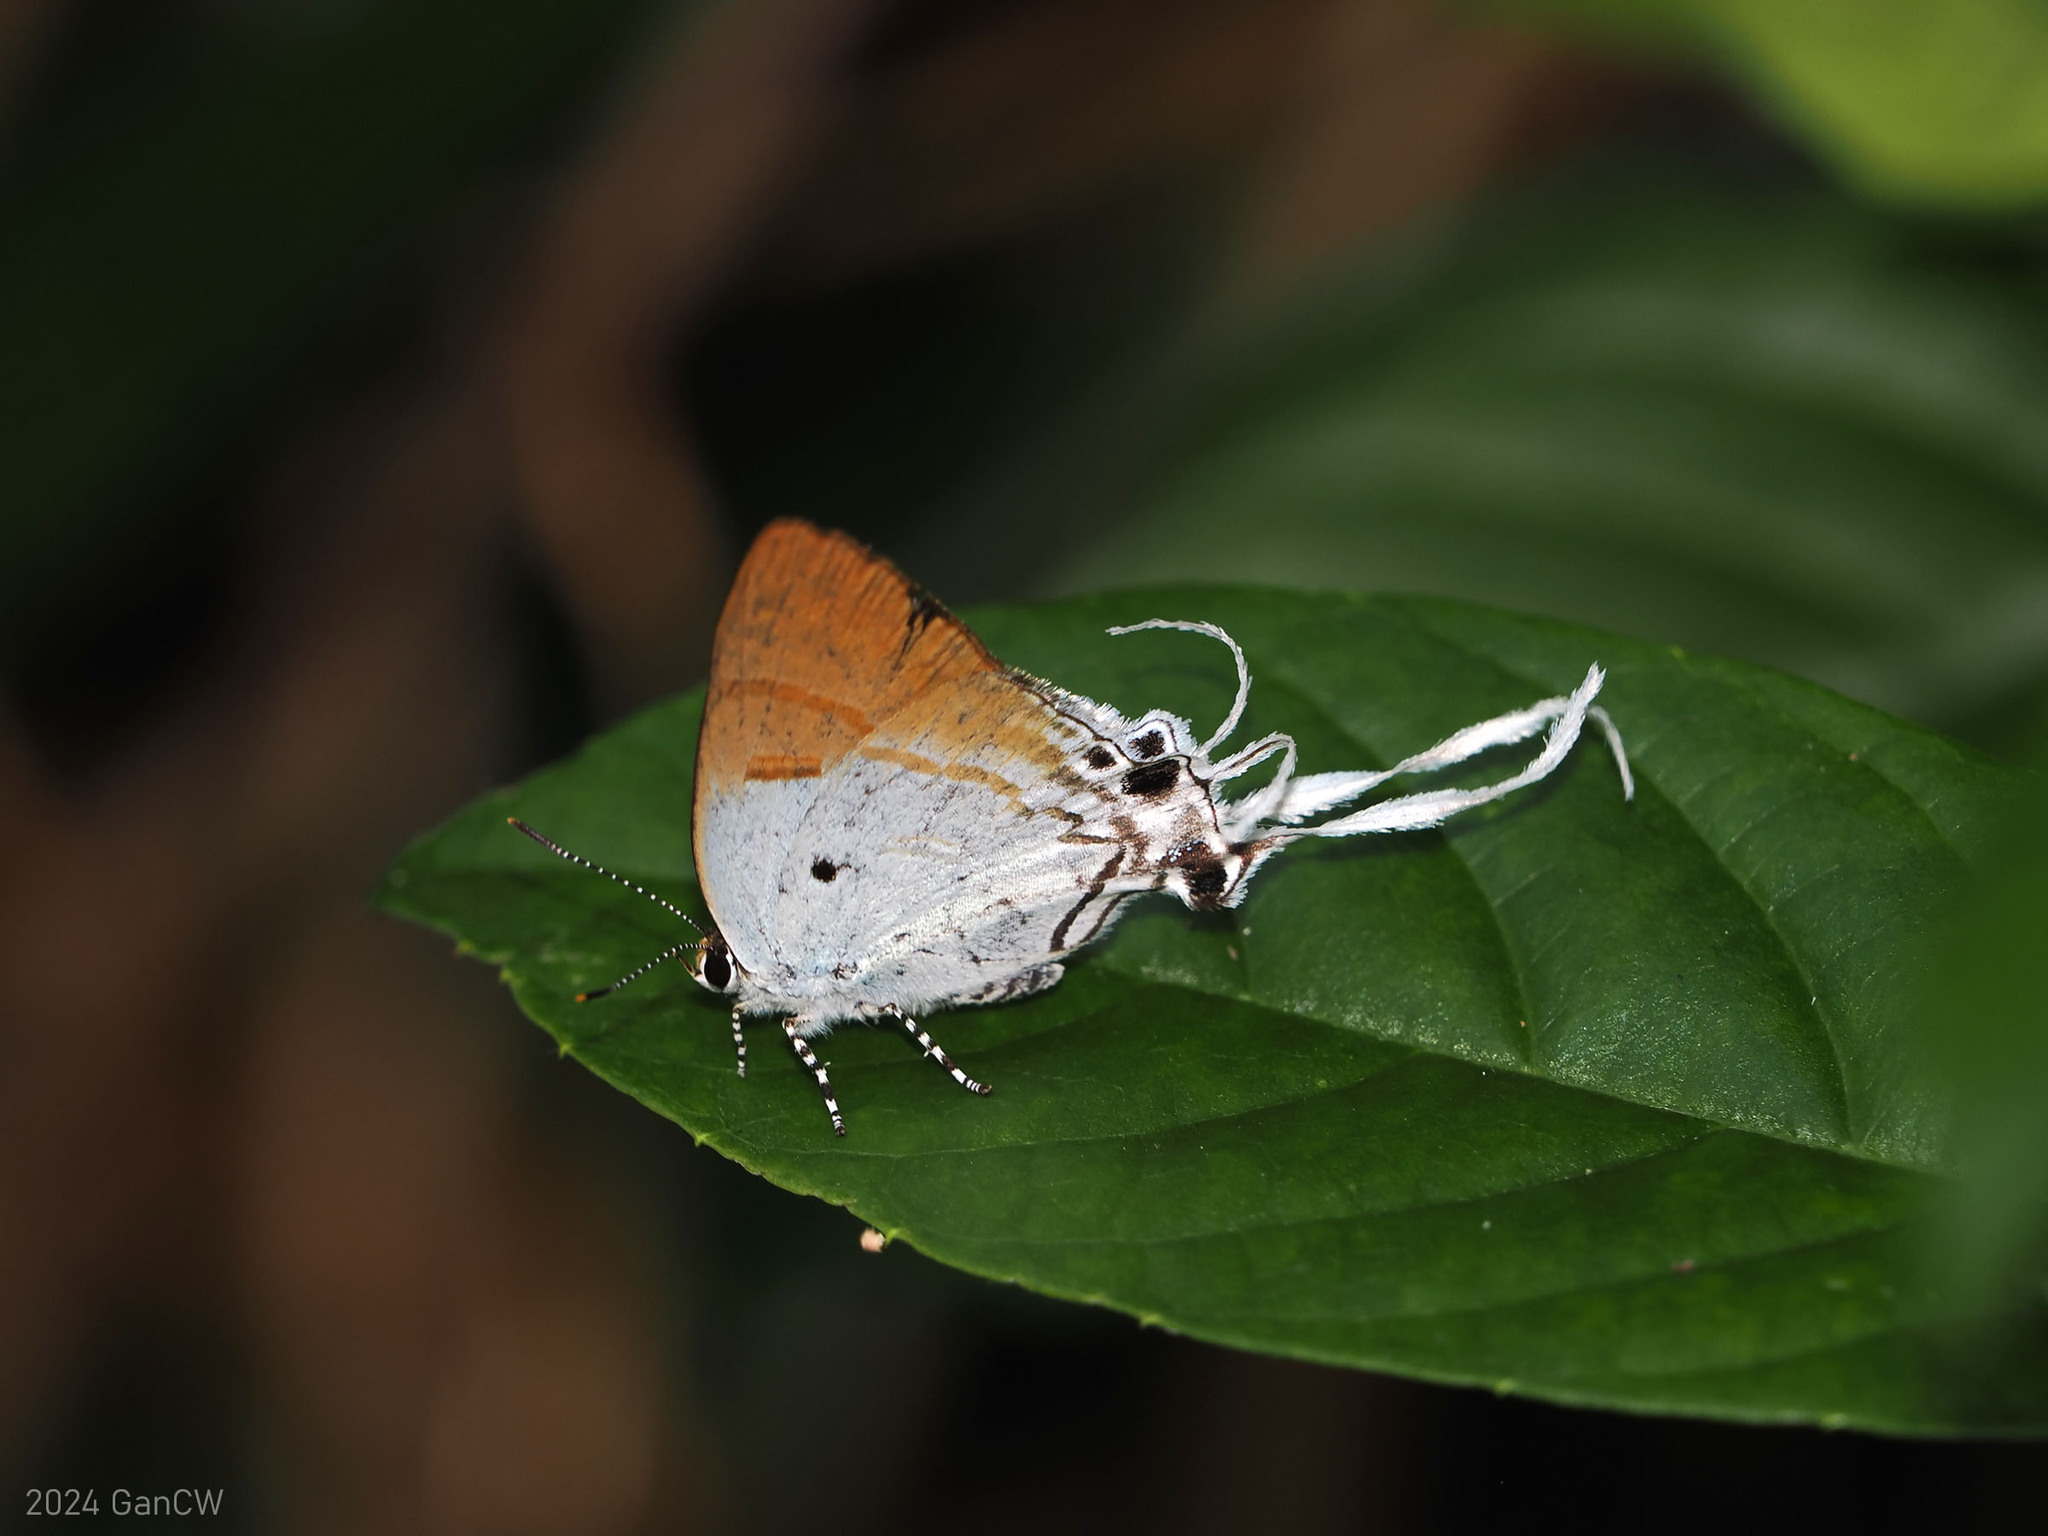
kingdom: Animalia
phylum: Arthropoda
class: Insecta
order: Lepidoptera
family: Lycaenidae
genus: Zeltus
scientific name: Zeltus amasa
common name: Fluffy tit
